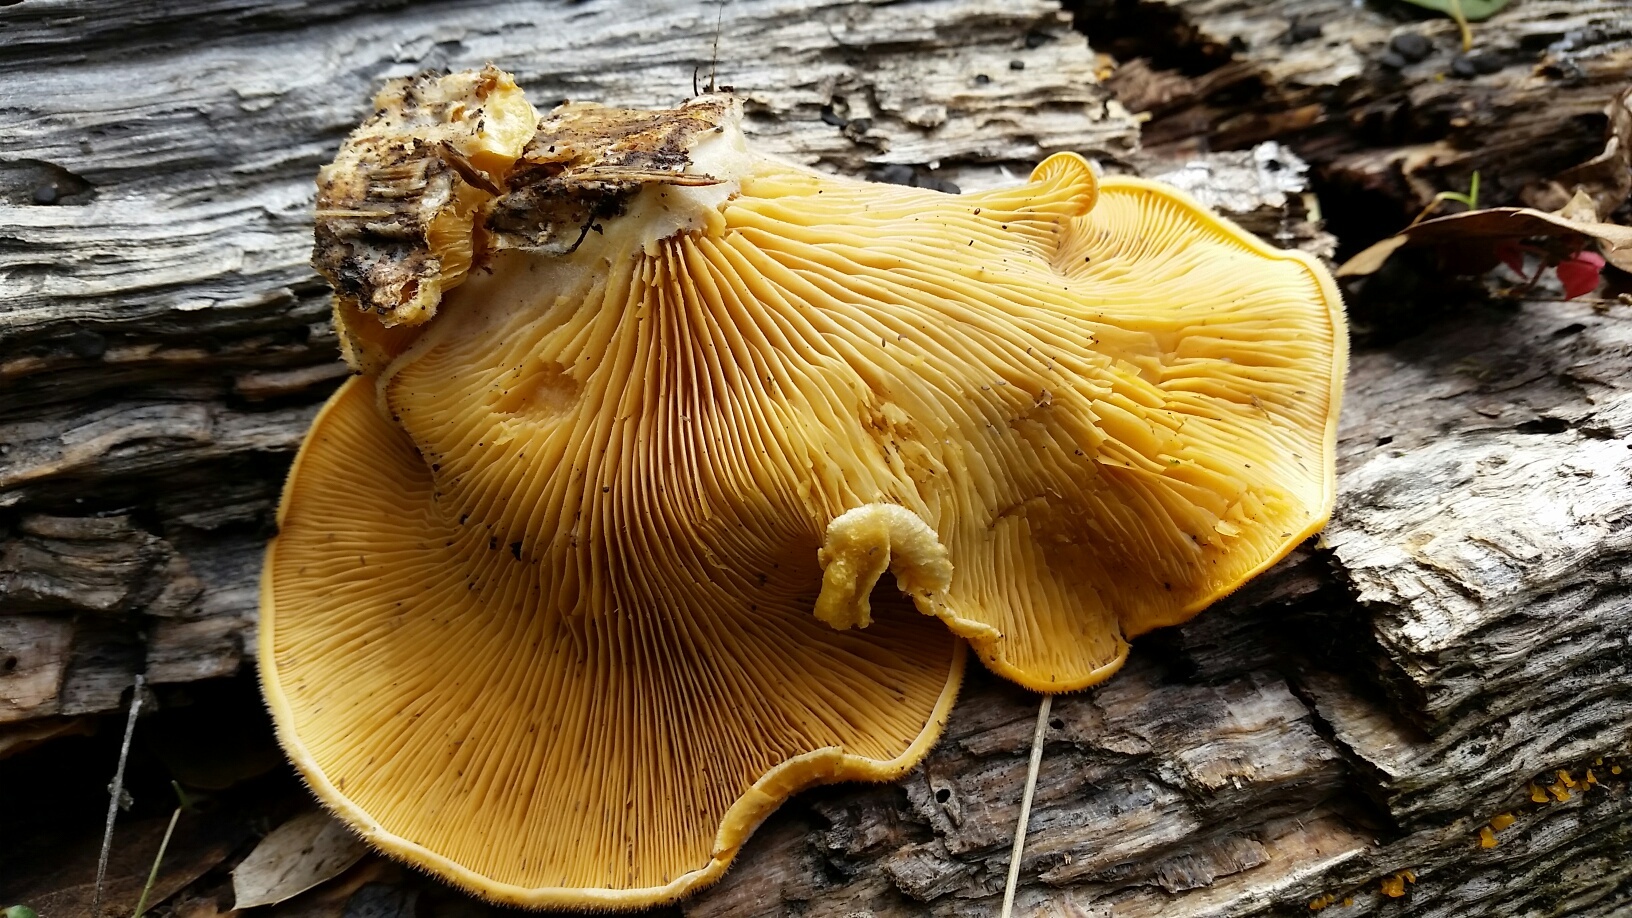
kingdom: Fungi
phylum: Basidiomycota
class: Agaricomycetes
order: Agaricales
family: Phyllotopsidaceae
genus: Phyllotopsis
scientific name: Phyllotopsis nidulans
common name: Orange mock oyster
